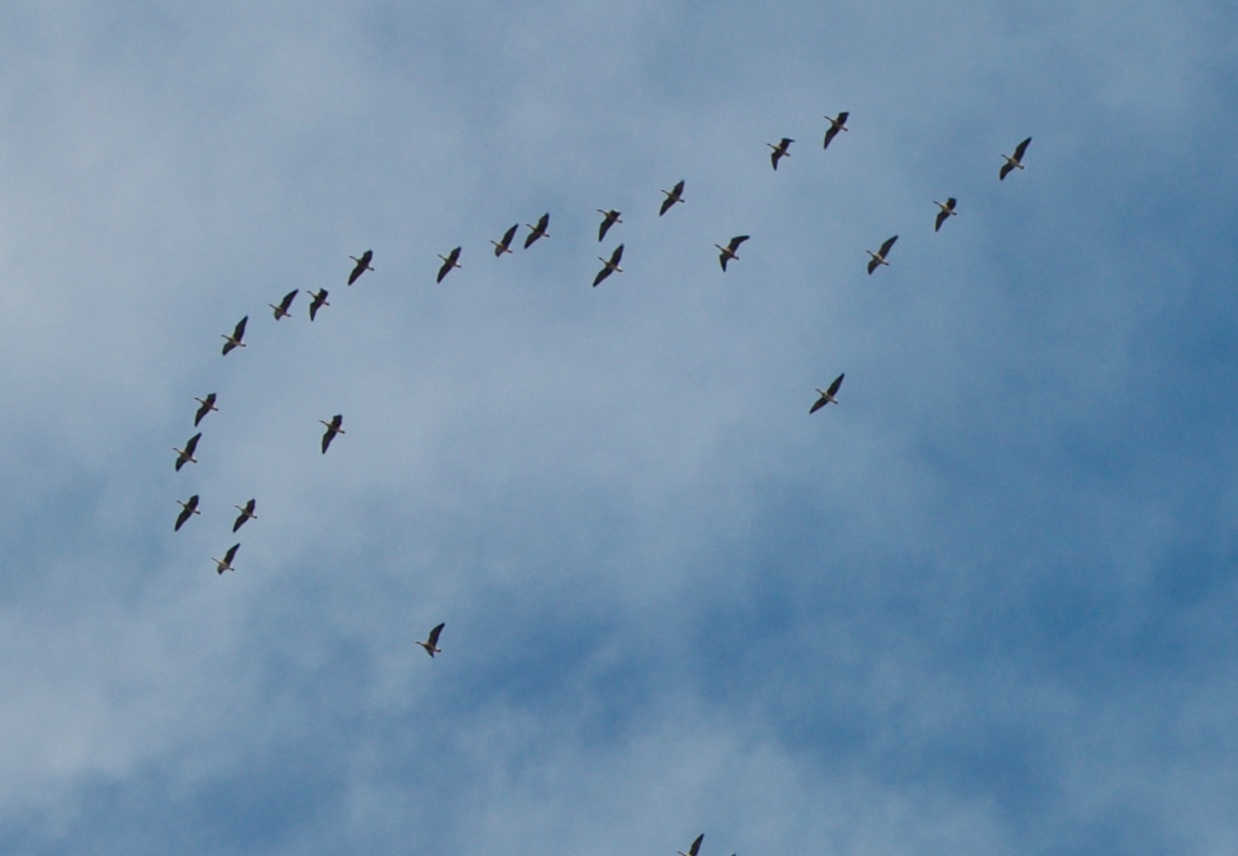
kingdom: Animalia
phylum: Chordata
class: Aves
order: Anseriformes
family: Anatidae
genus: Anser
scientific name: Anser albifrons
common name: Greater white-fronted goose
